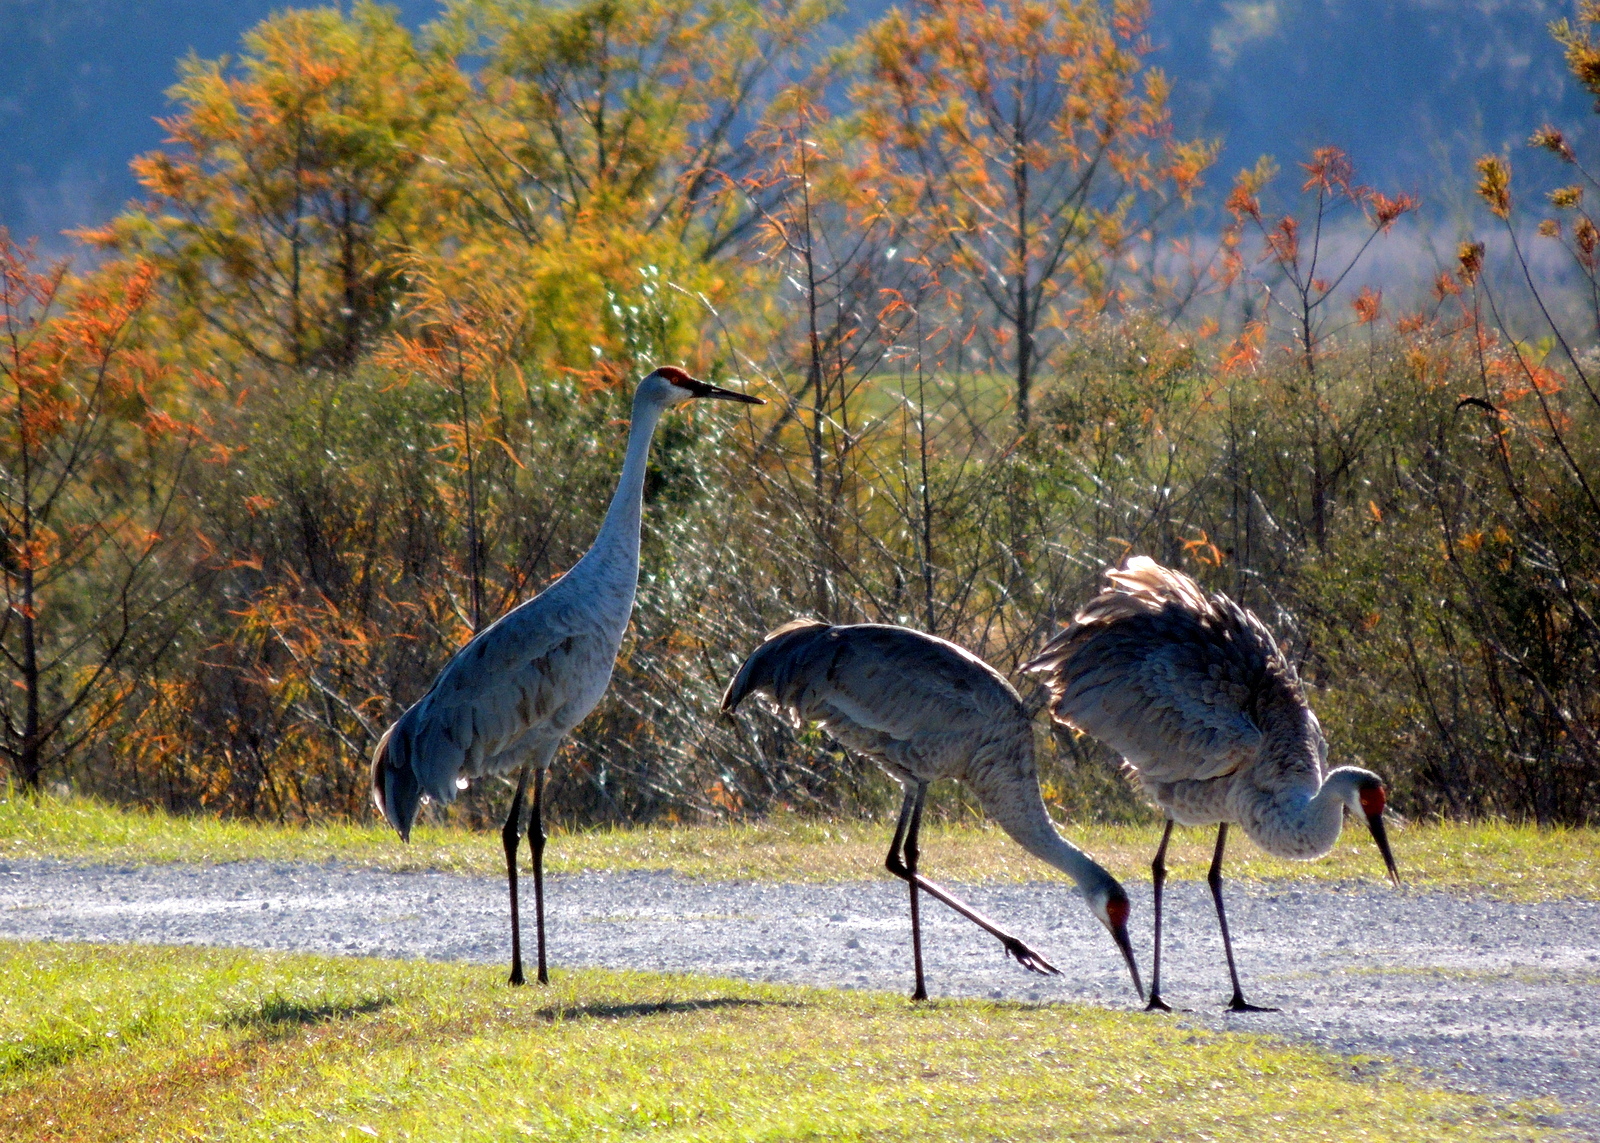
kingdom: Animalia
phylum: Chordata
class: Aves
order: Gruiformes
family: Gruidae
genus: Grus
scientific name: Grus canadensis
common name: Sandhill crane
